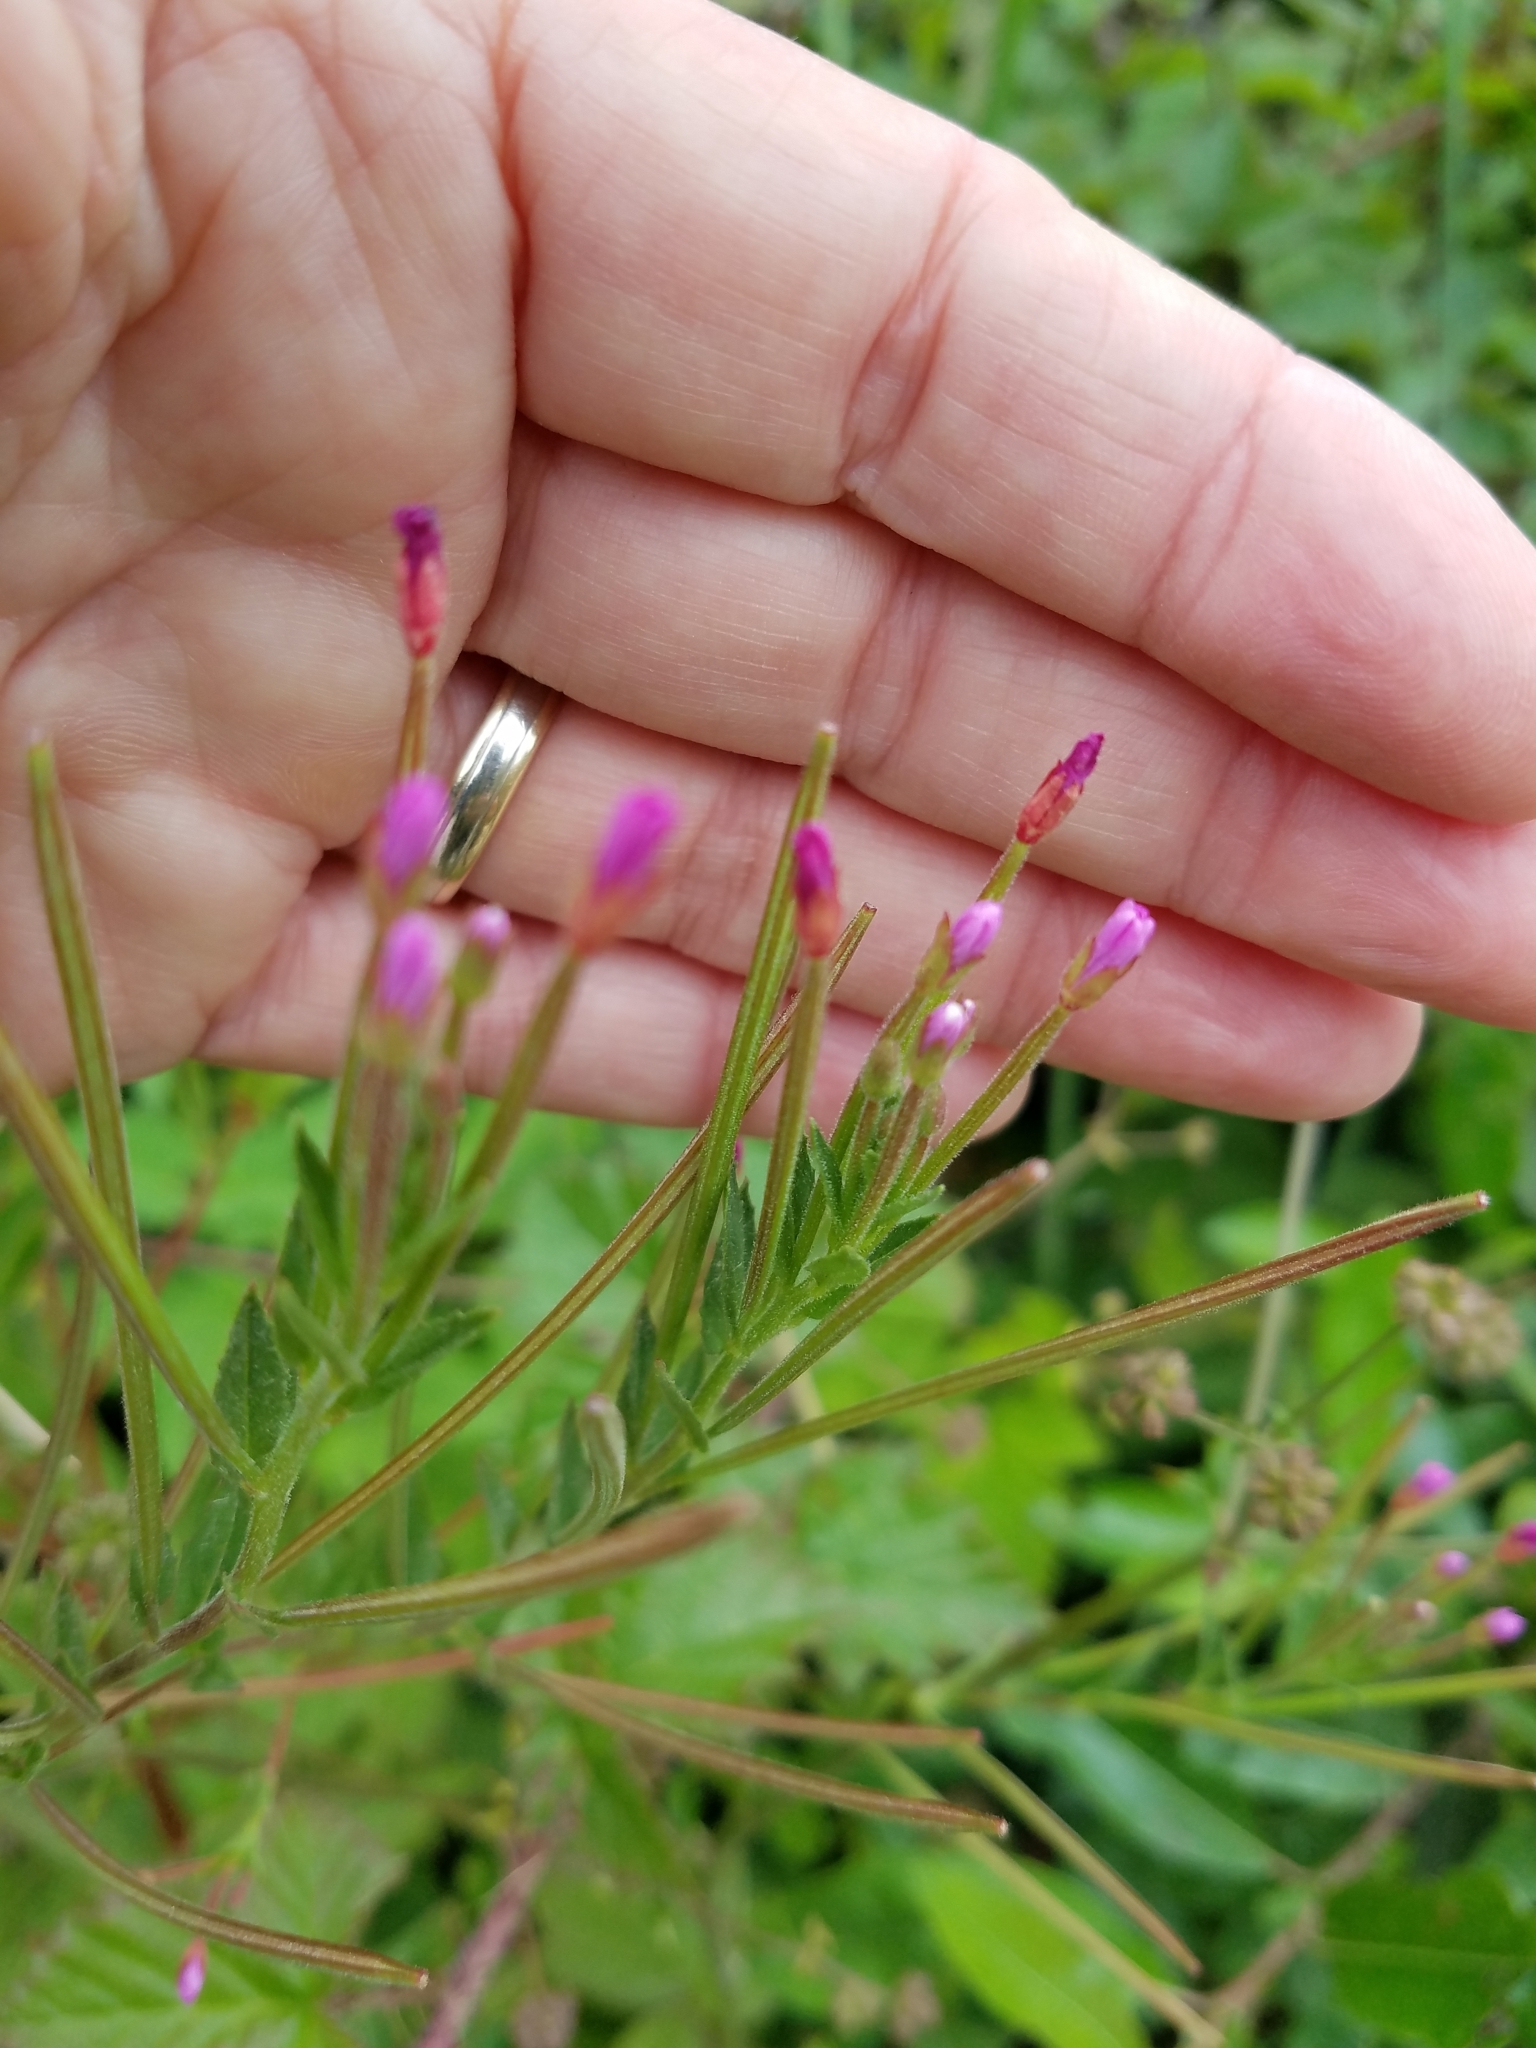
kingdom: Plantae
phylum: Tracheophyta
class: Magnoliopsida
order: Myrtales
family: Onagraceae
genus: Epilobium
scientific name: Epilobium ciliatum
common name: American willowherb
